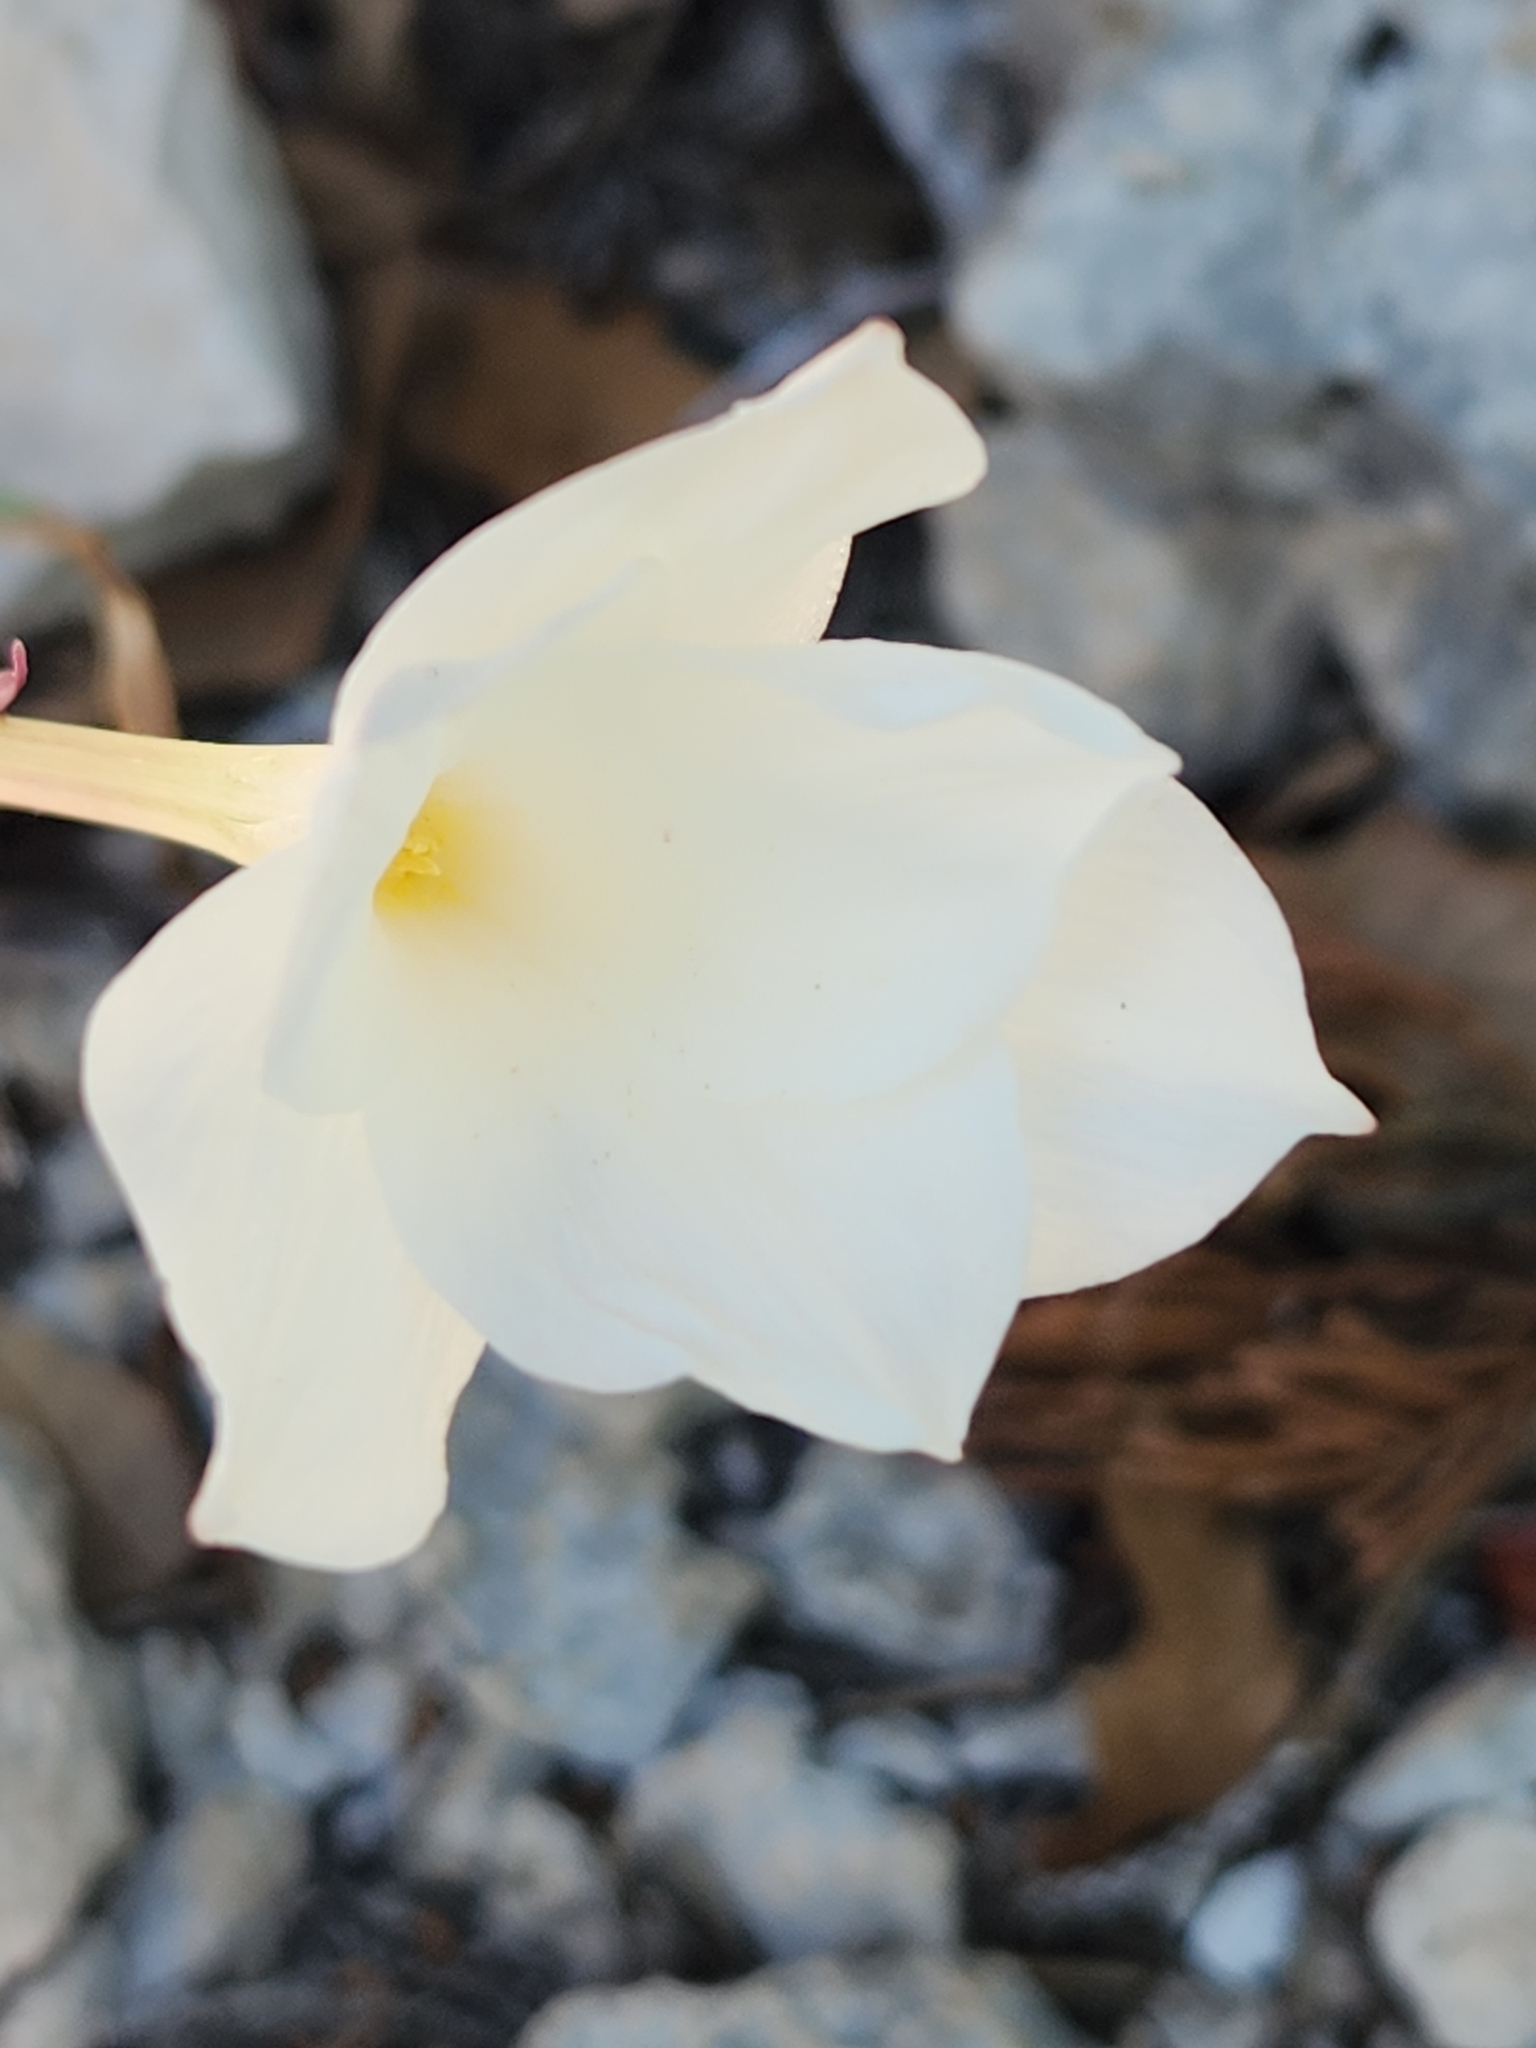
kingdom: Plantae
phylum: Tracheophyta
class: Liliopsida
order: Asparagales
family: Amaryllidaceae
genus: Zephyranthes
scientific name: Zephyranthes drummondii
